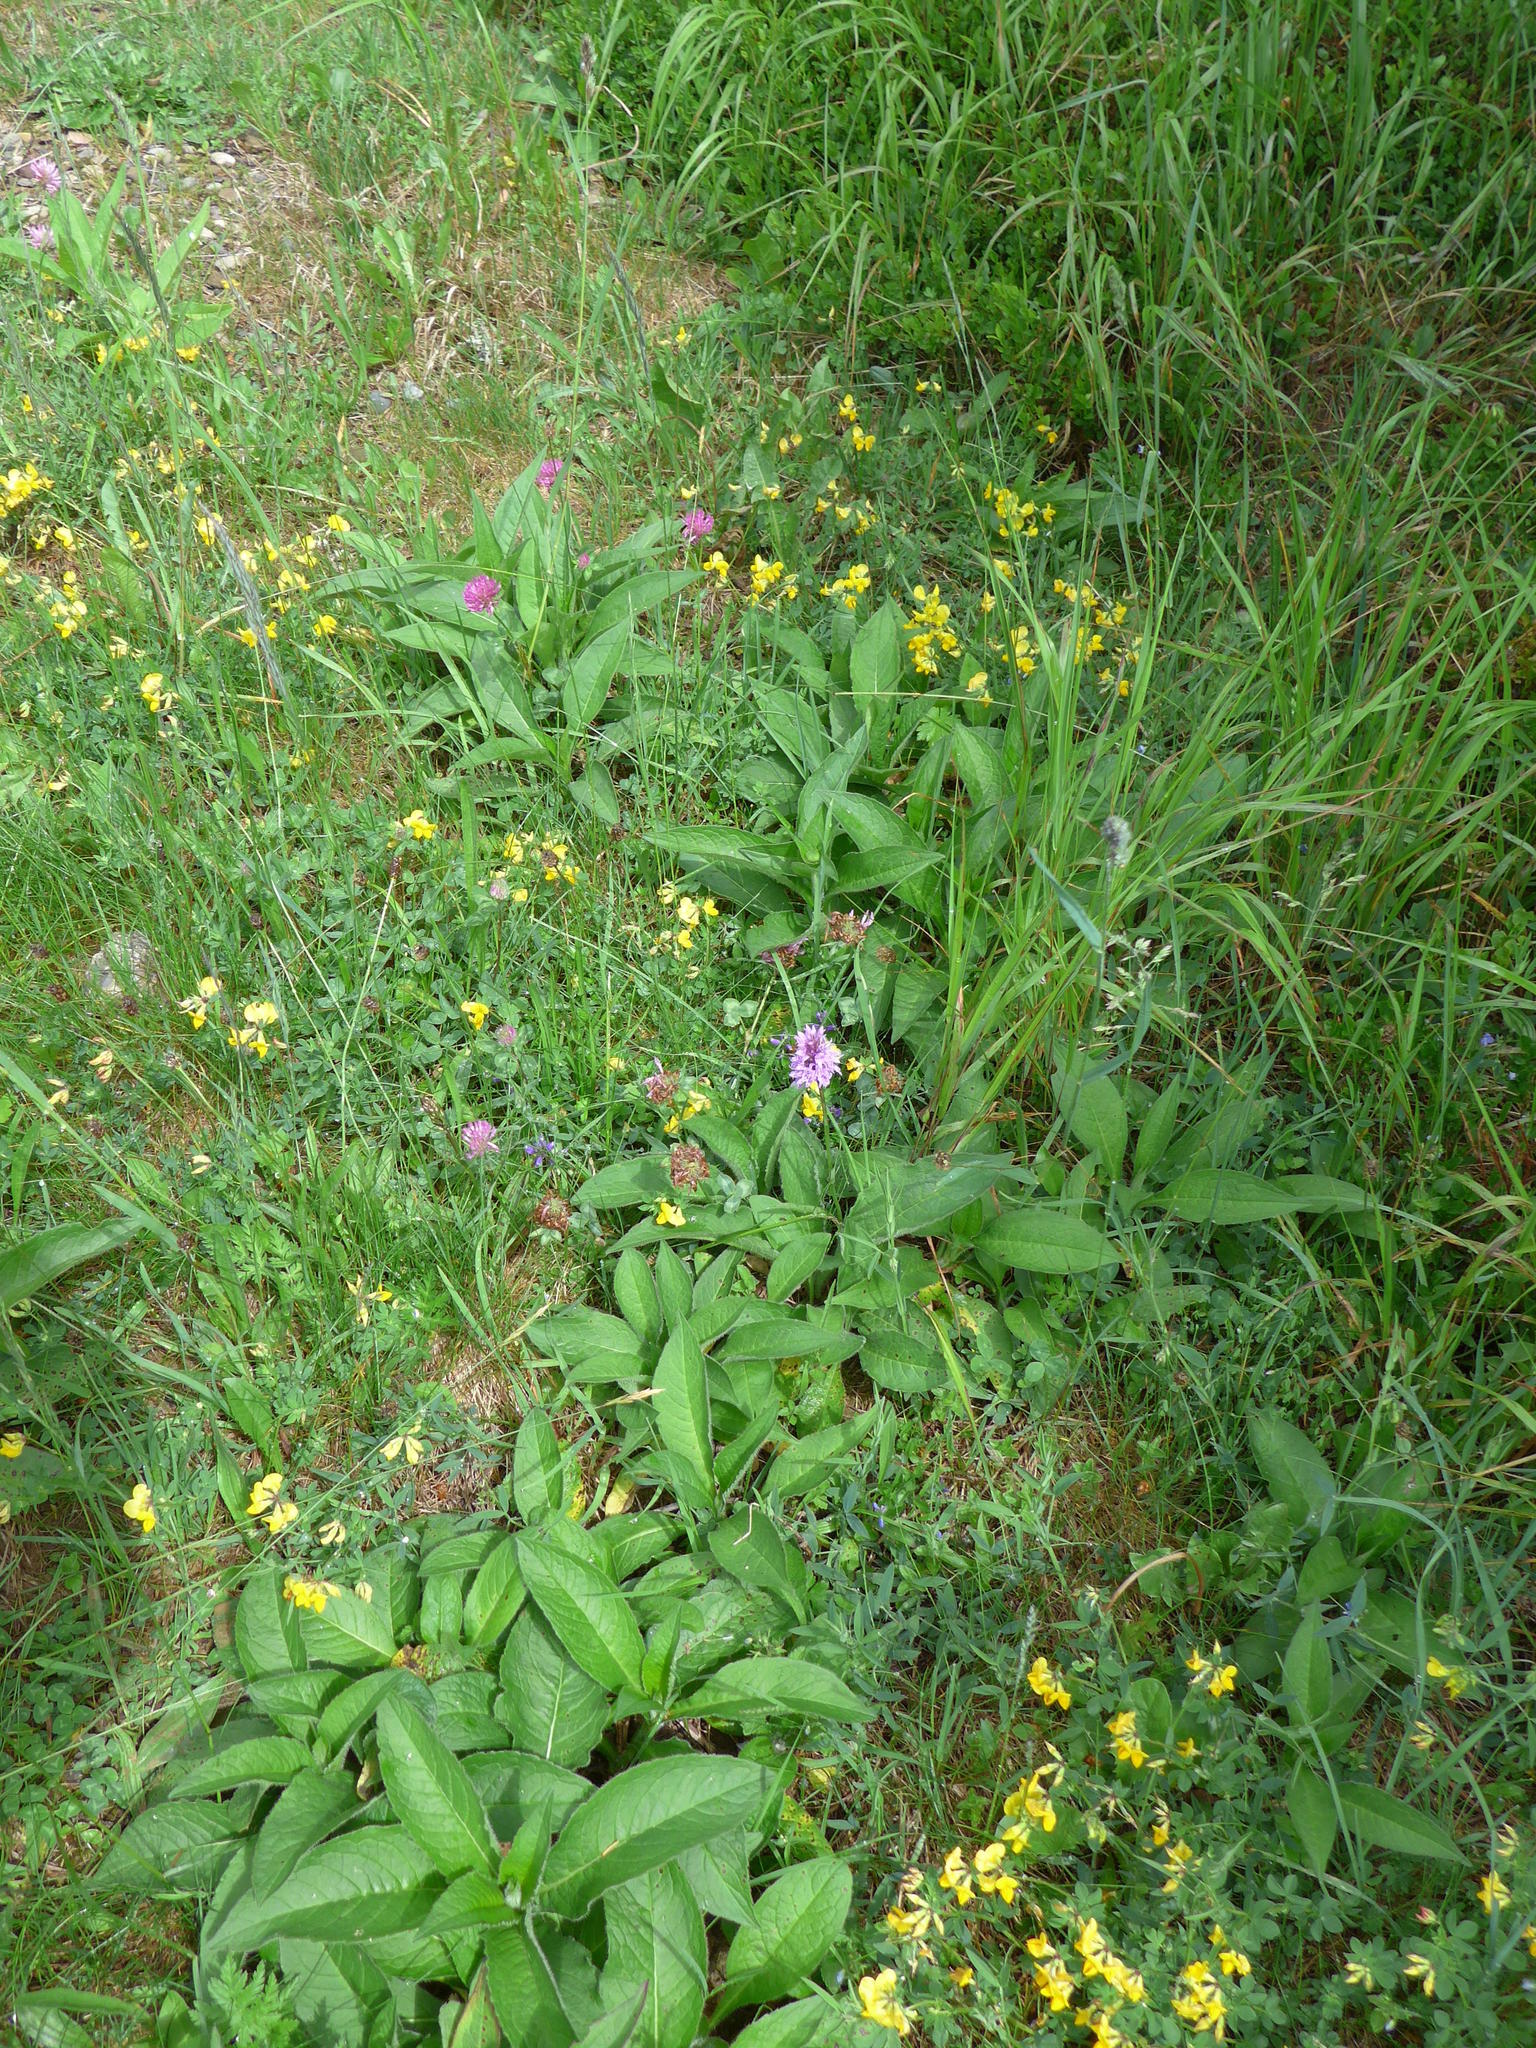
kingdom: Plantae
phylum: Tracheophyta
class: Liliopsida
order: Asparagales
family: Orchidaceae
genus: Dactylorhiza
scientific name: Dactylorhiza maculata
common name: Heath spotted-orchid
